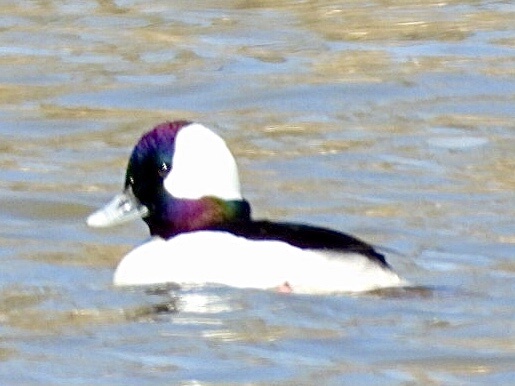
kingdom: Animalia
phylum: Chordata
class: Aves
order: Anseriformes
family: Anatidae
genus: Bucephala
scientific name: Bucephala albeola
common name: Bufflehead
